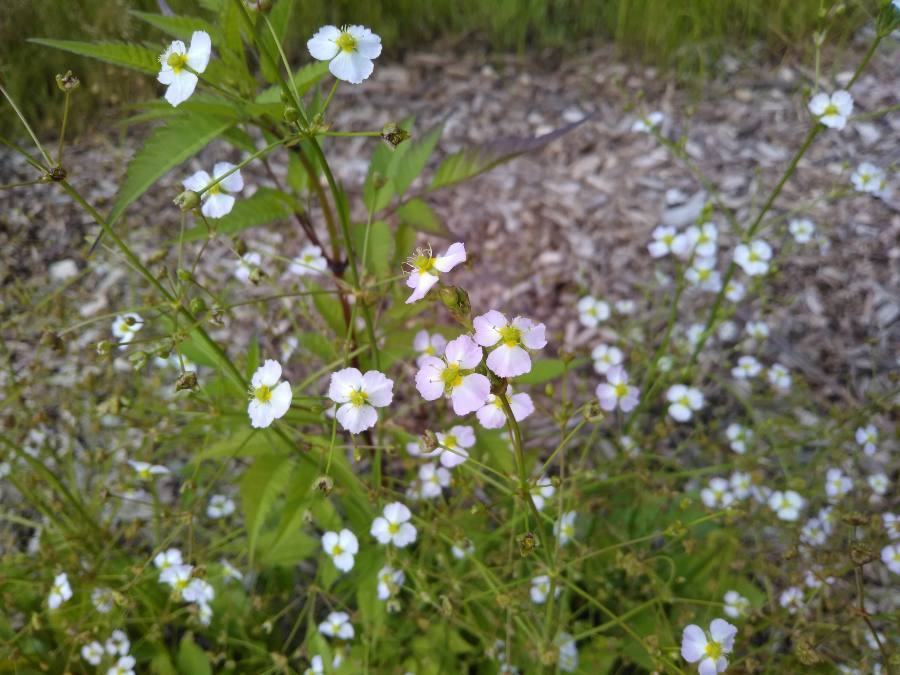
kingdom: Plantae
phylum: Tracheophyta
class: Liliopsida
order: Alismatales
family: Alismataceae
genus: Alisma
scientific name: Alisma plantago-aquatica
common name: Water-plantain
